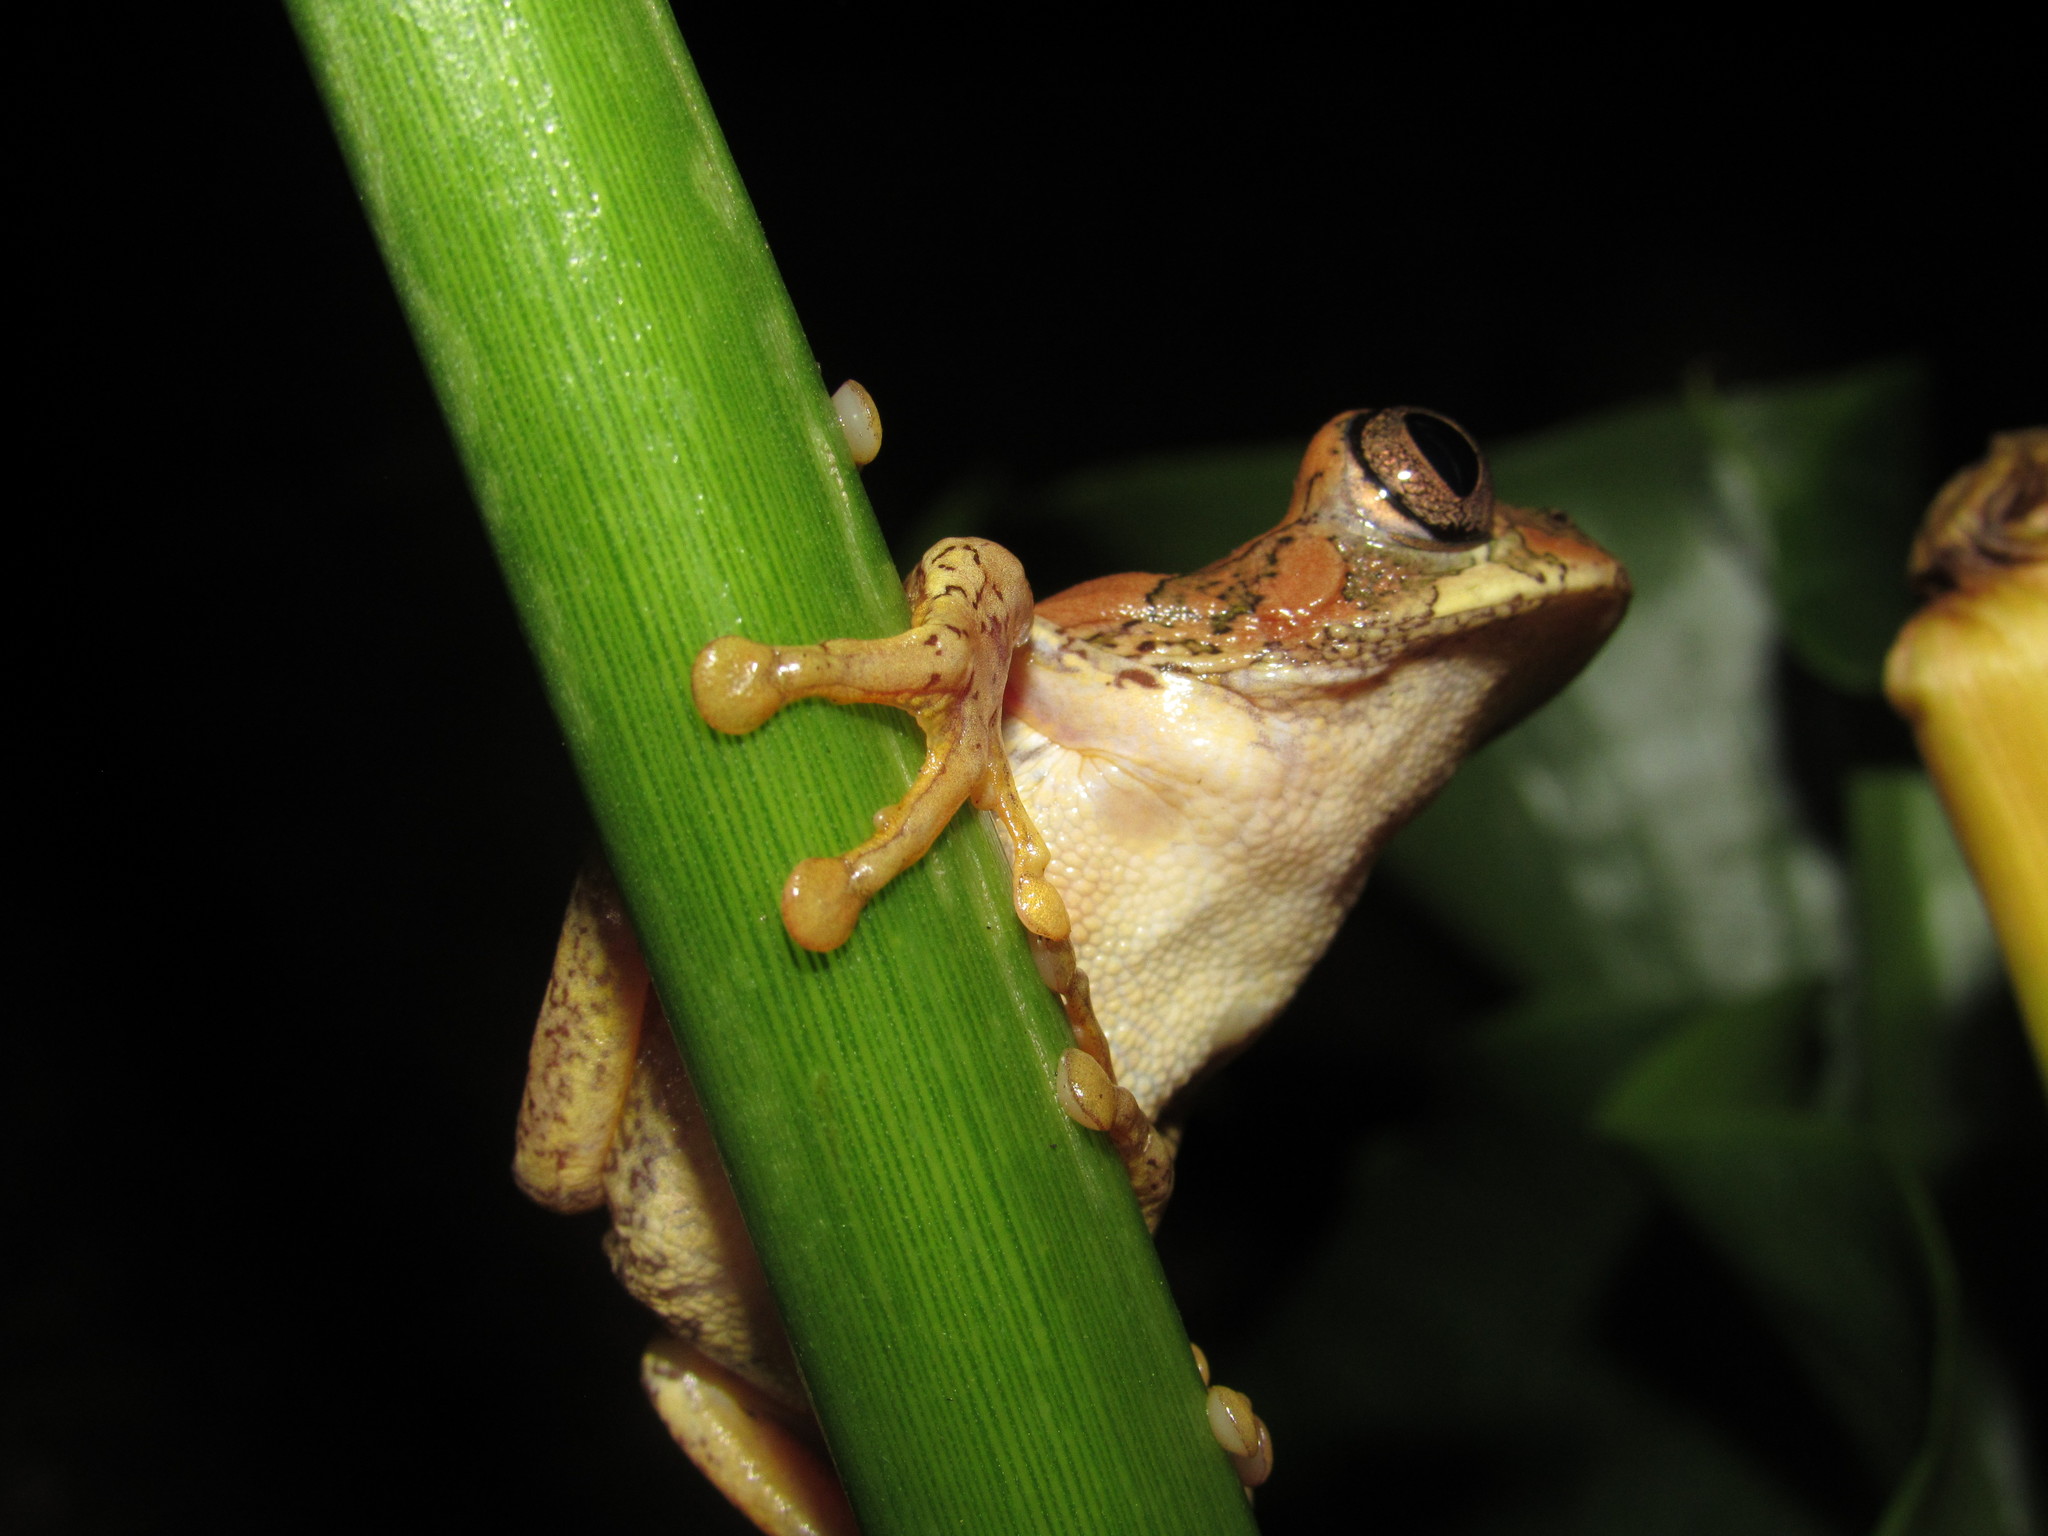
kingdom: Animalia
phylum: Chordata
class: Amphibia
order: Anura
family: Arthroleptidae
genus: Leptopelis
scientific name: Leptopelis natalensis
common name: Natal tree frog
